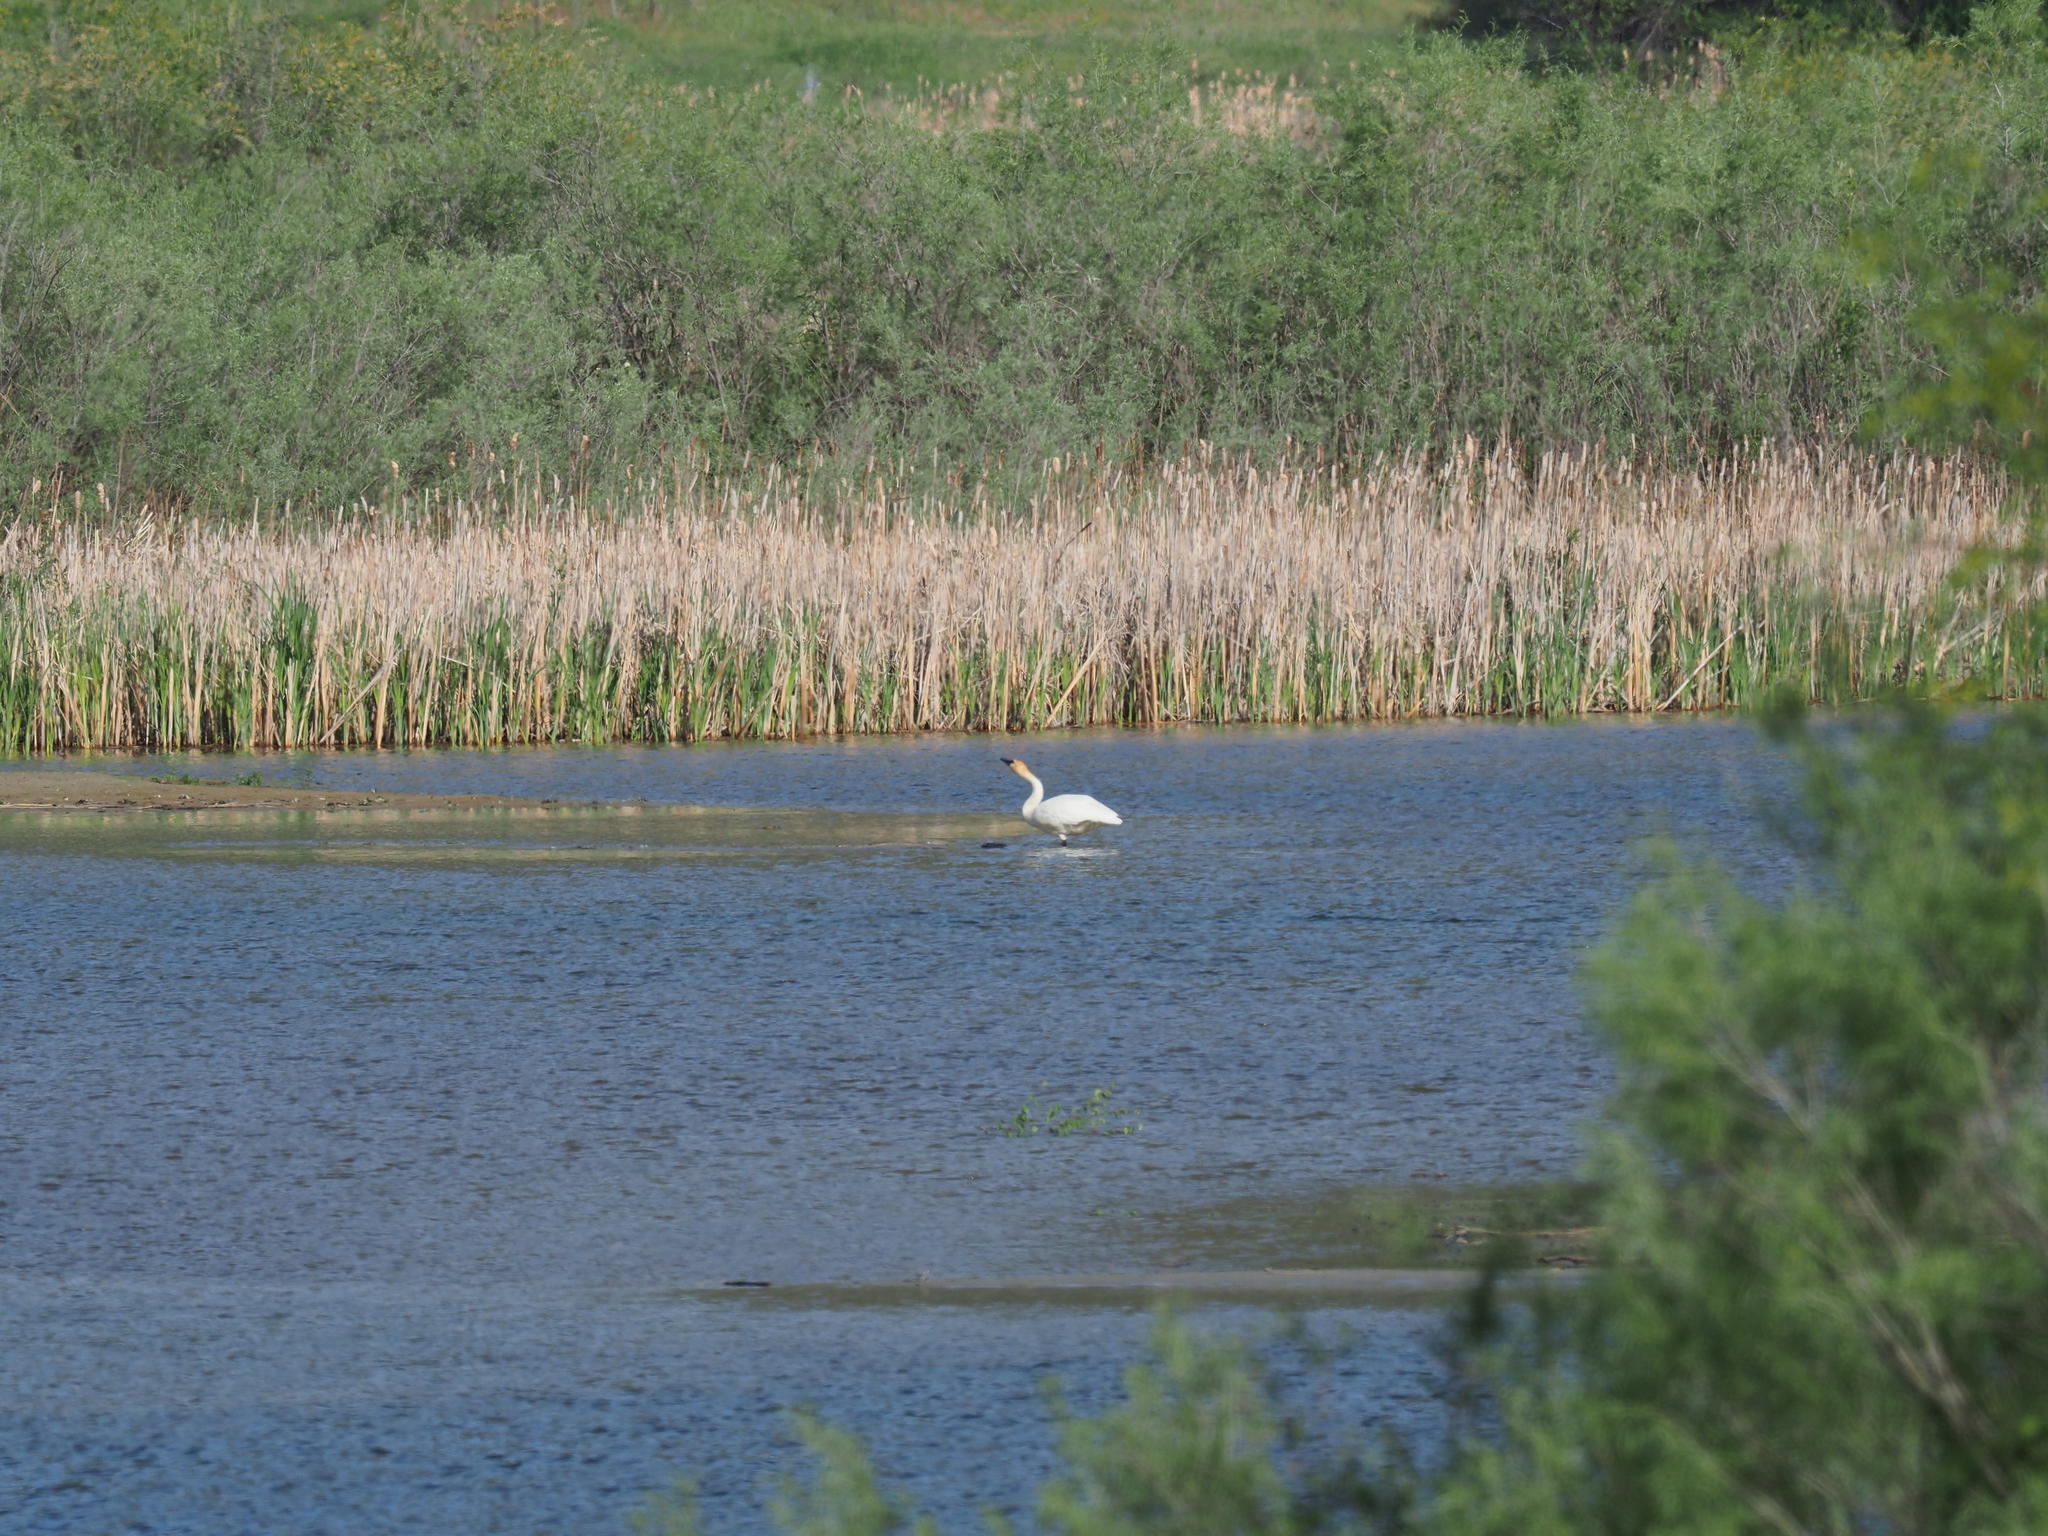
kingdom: Animalia
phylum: Chordata
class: Aves
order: Anseriformes
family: Anatidae
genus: Cygnus
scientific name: Cygnus buccinator
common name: Trumpeter swan
